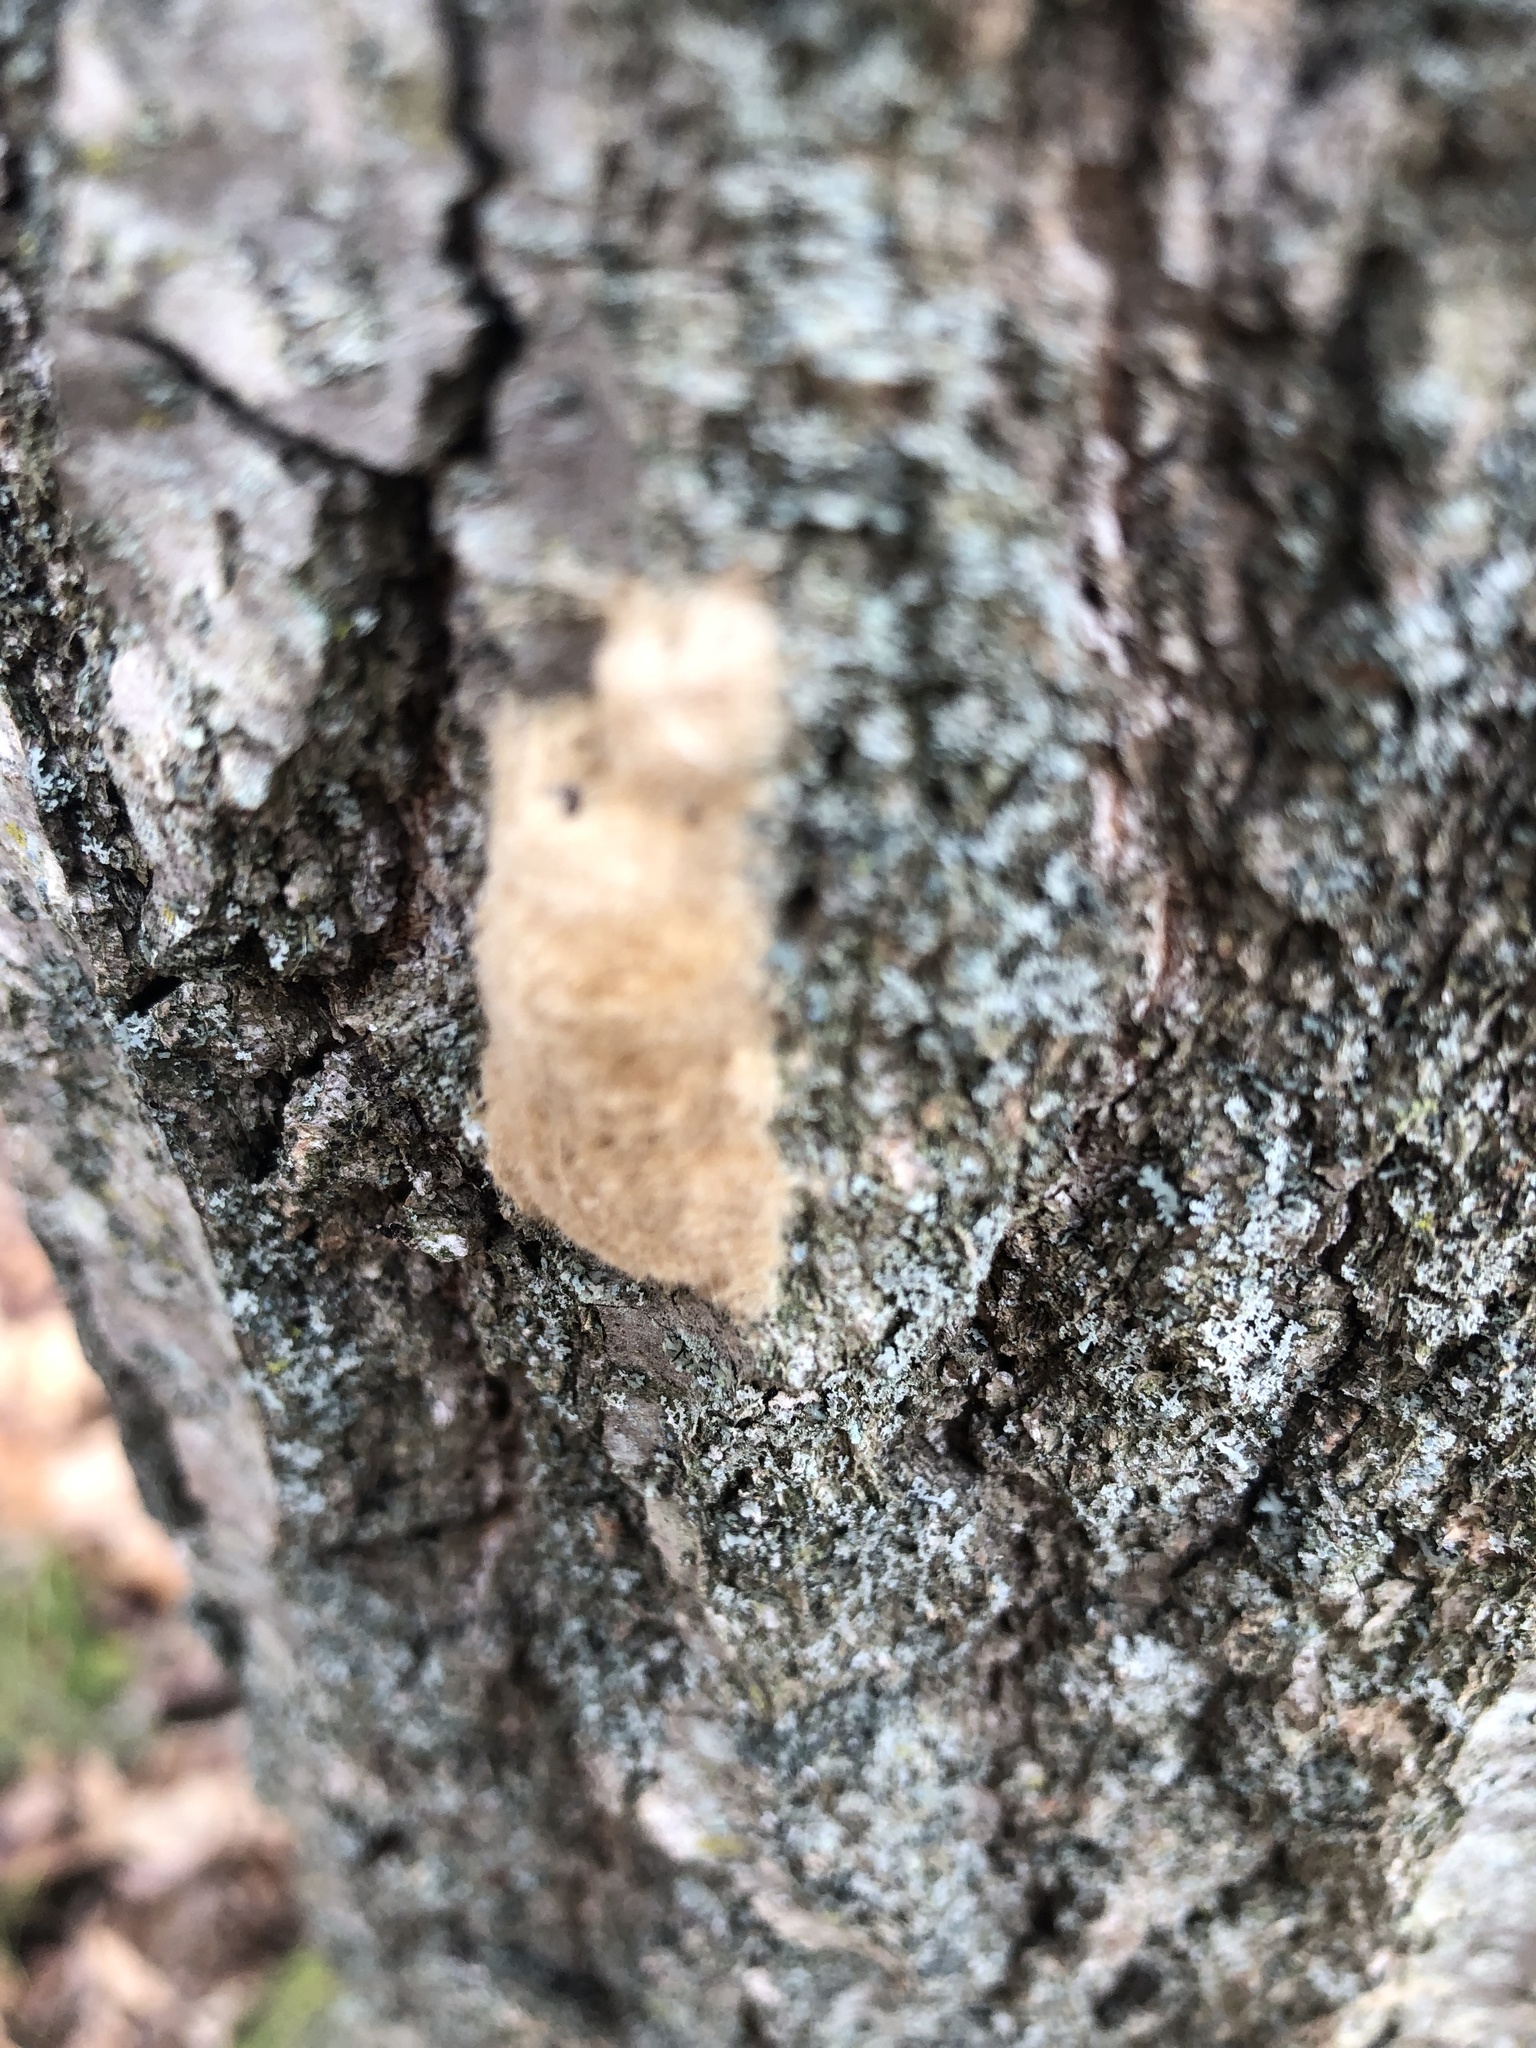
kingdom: Animalia
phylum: Arthropoda
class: Insecta
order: Lepidoptera
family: Erebidae
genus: Lymantria
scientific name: Lymantria dispar
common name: Gypsy moth
